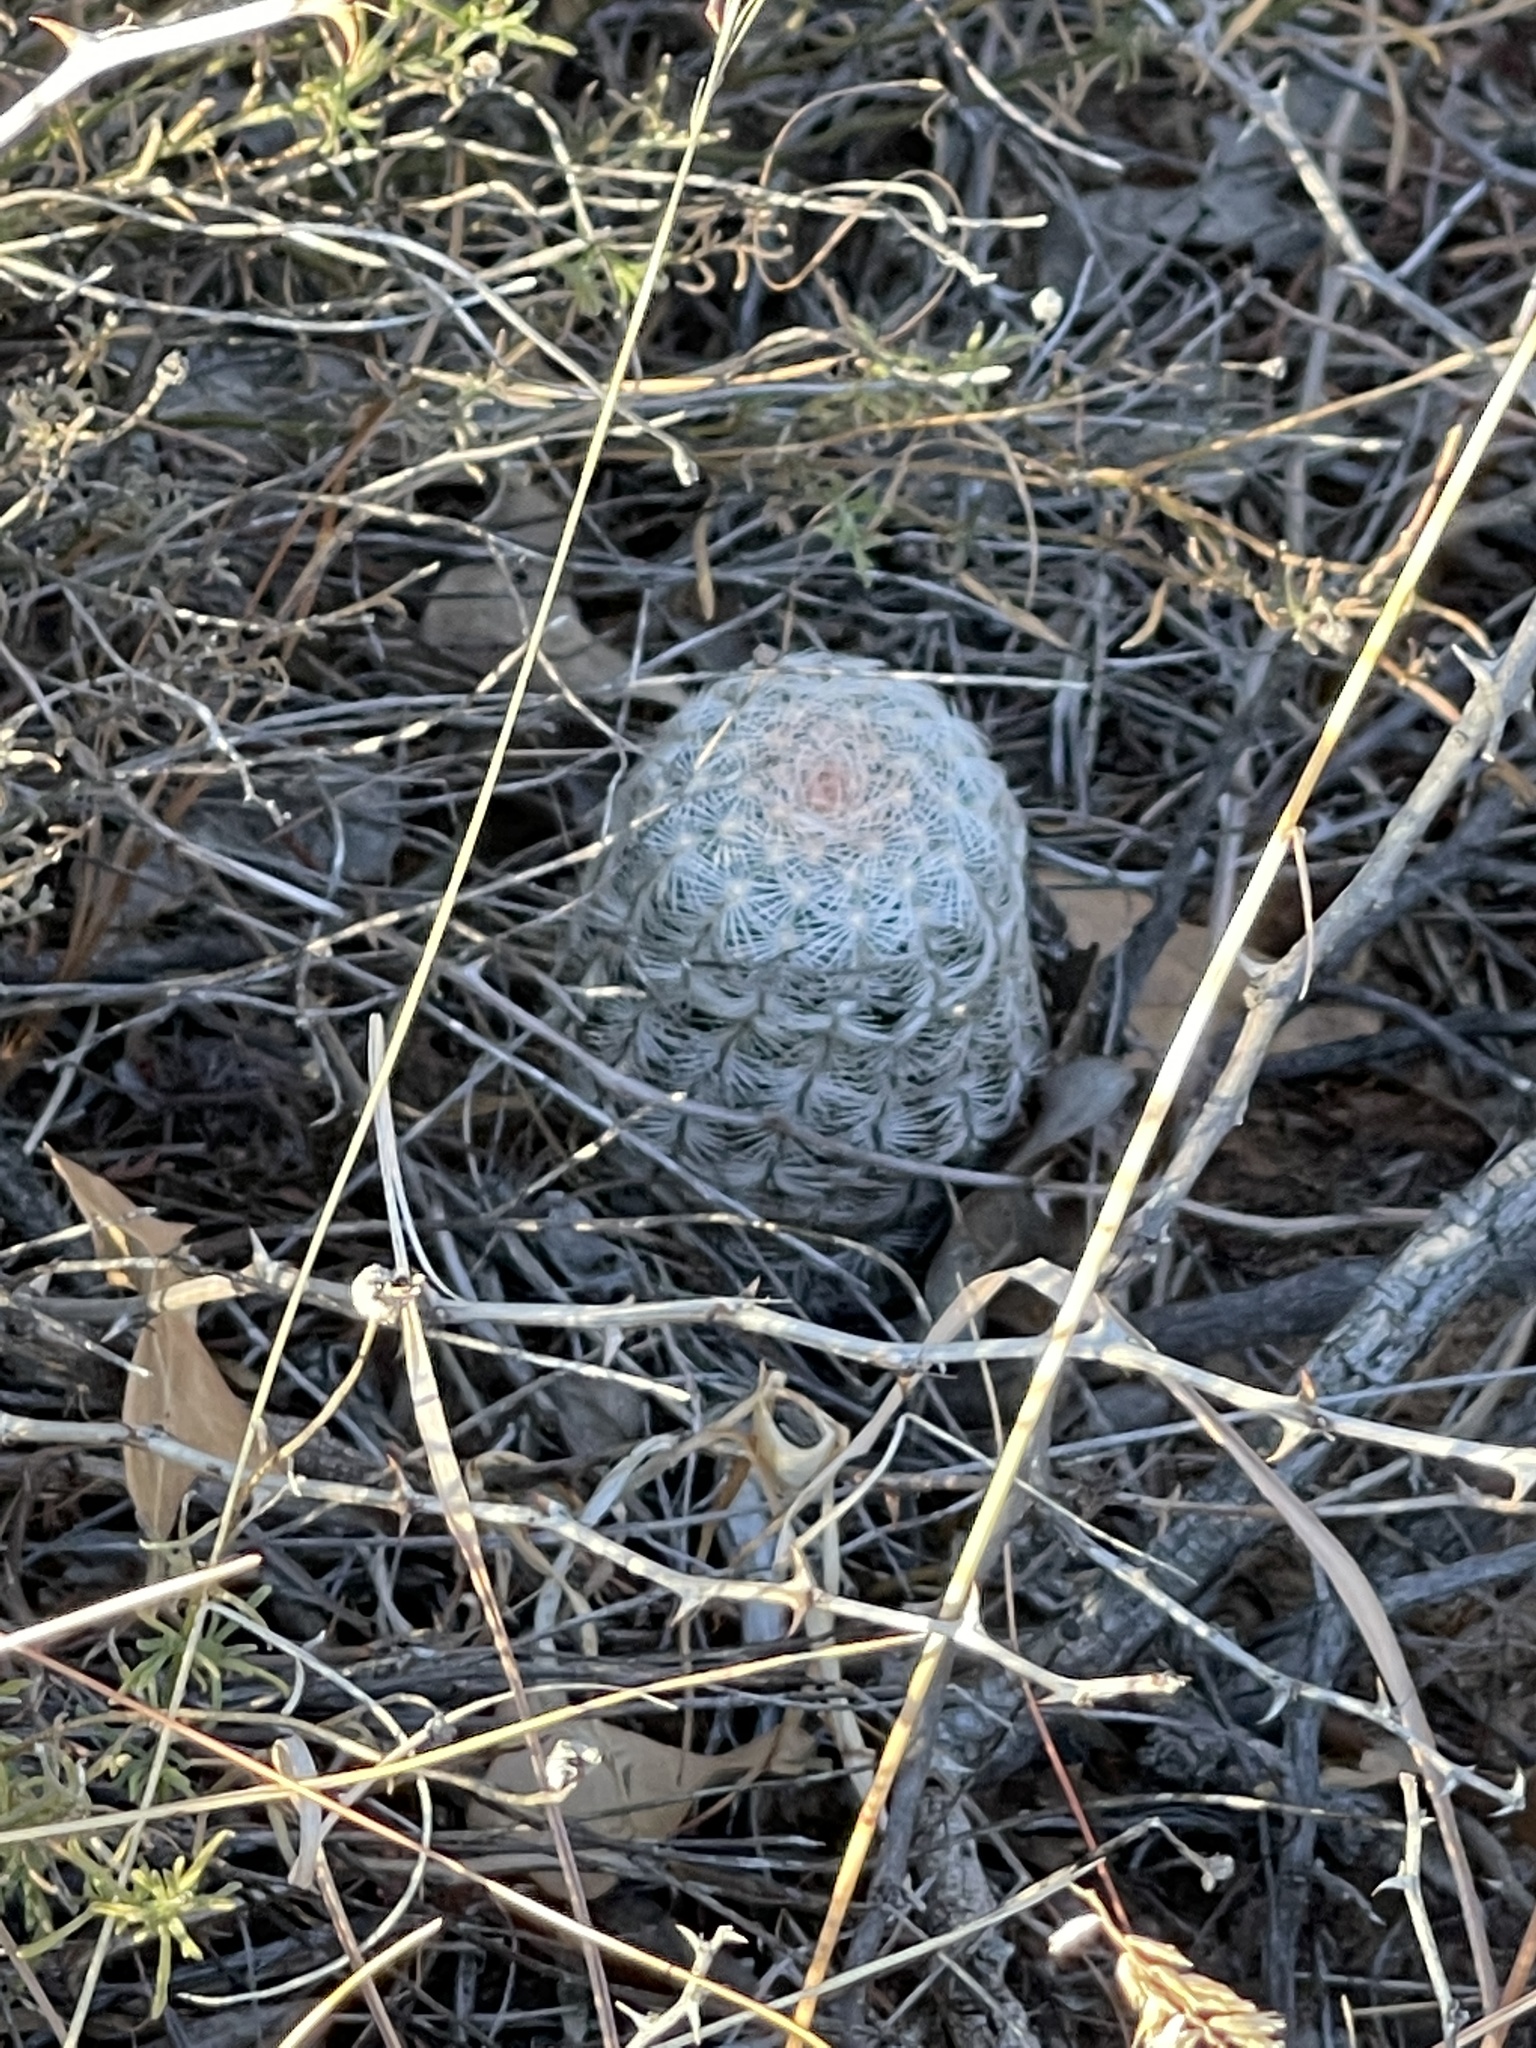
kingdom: Plantae
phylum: Tracheophyta
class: Magnoliopsida
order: Caryophyllales
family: Cactaceae
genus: Echinocereus
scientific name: Echinocereus reichenbachii
